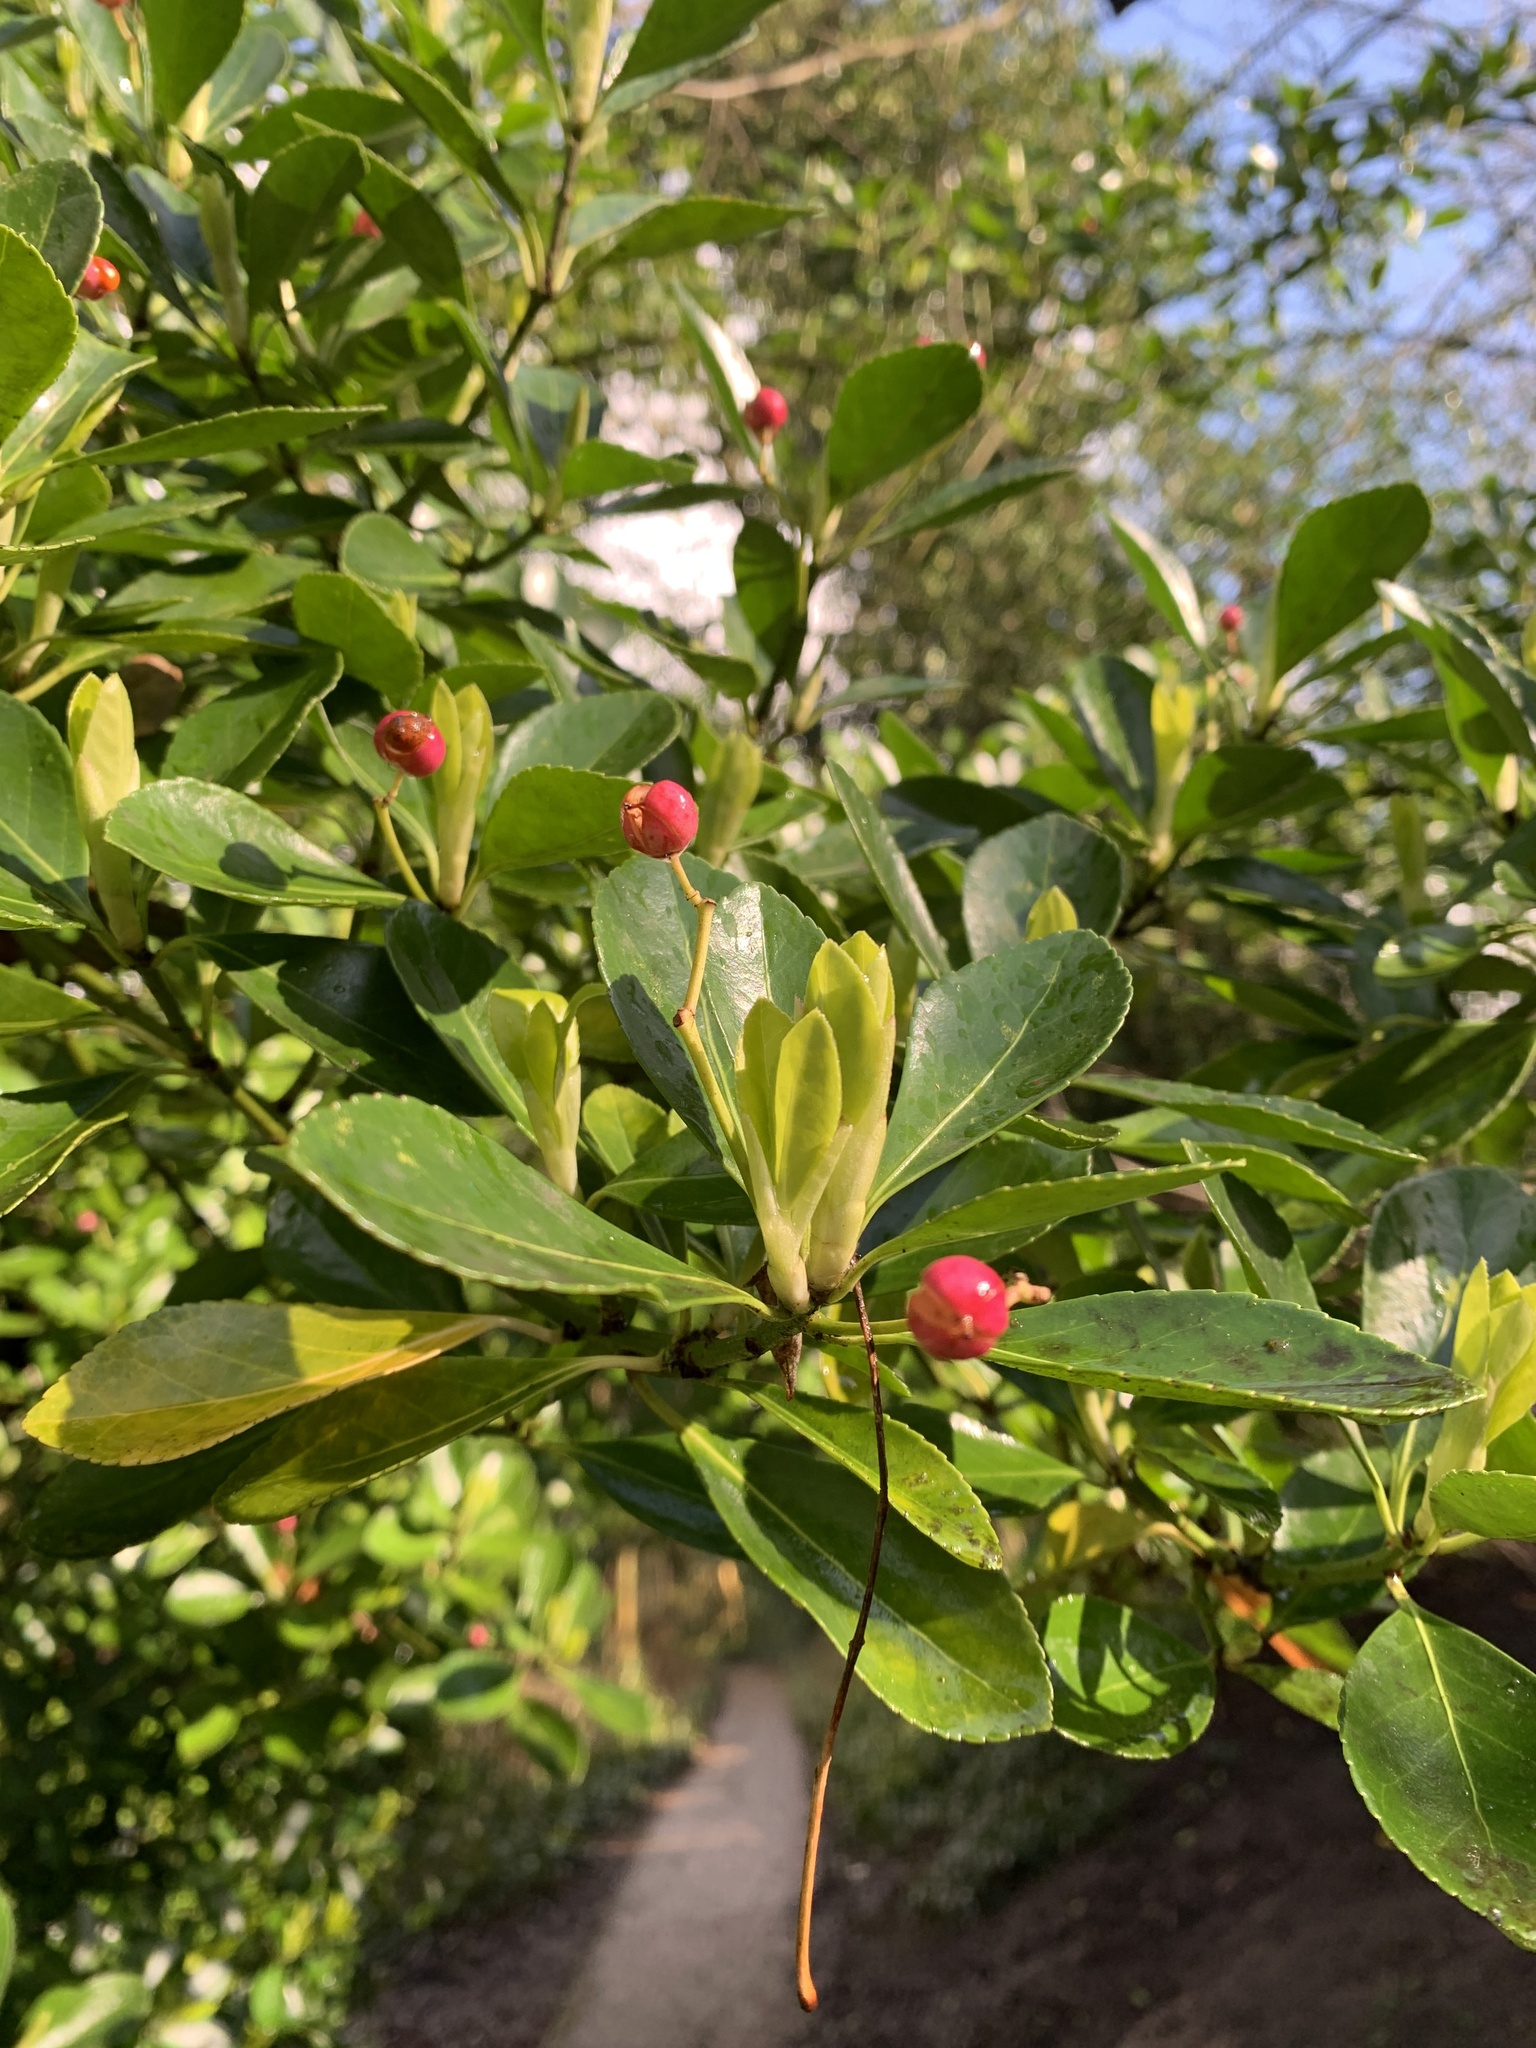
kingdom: Plantae
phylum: Tracheophyta
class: Magnoliopsida
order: Celastrales
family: Celastraceae
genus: Euonymus
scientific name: Euonymus japonicus
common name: Japanese spindletree
